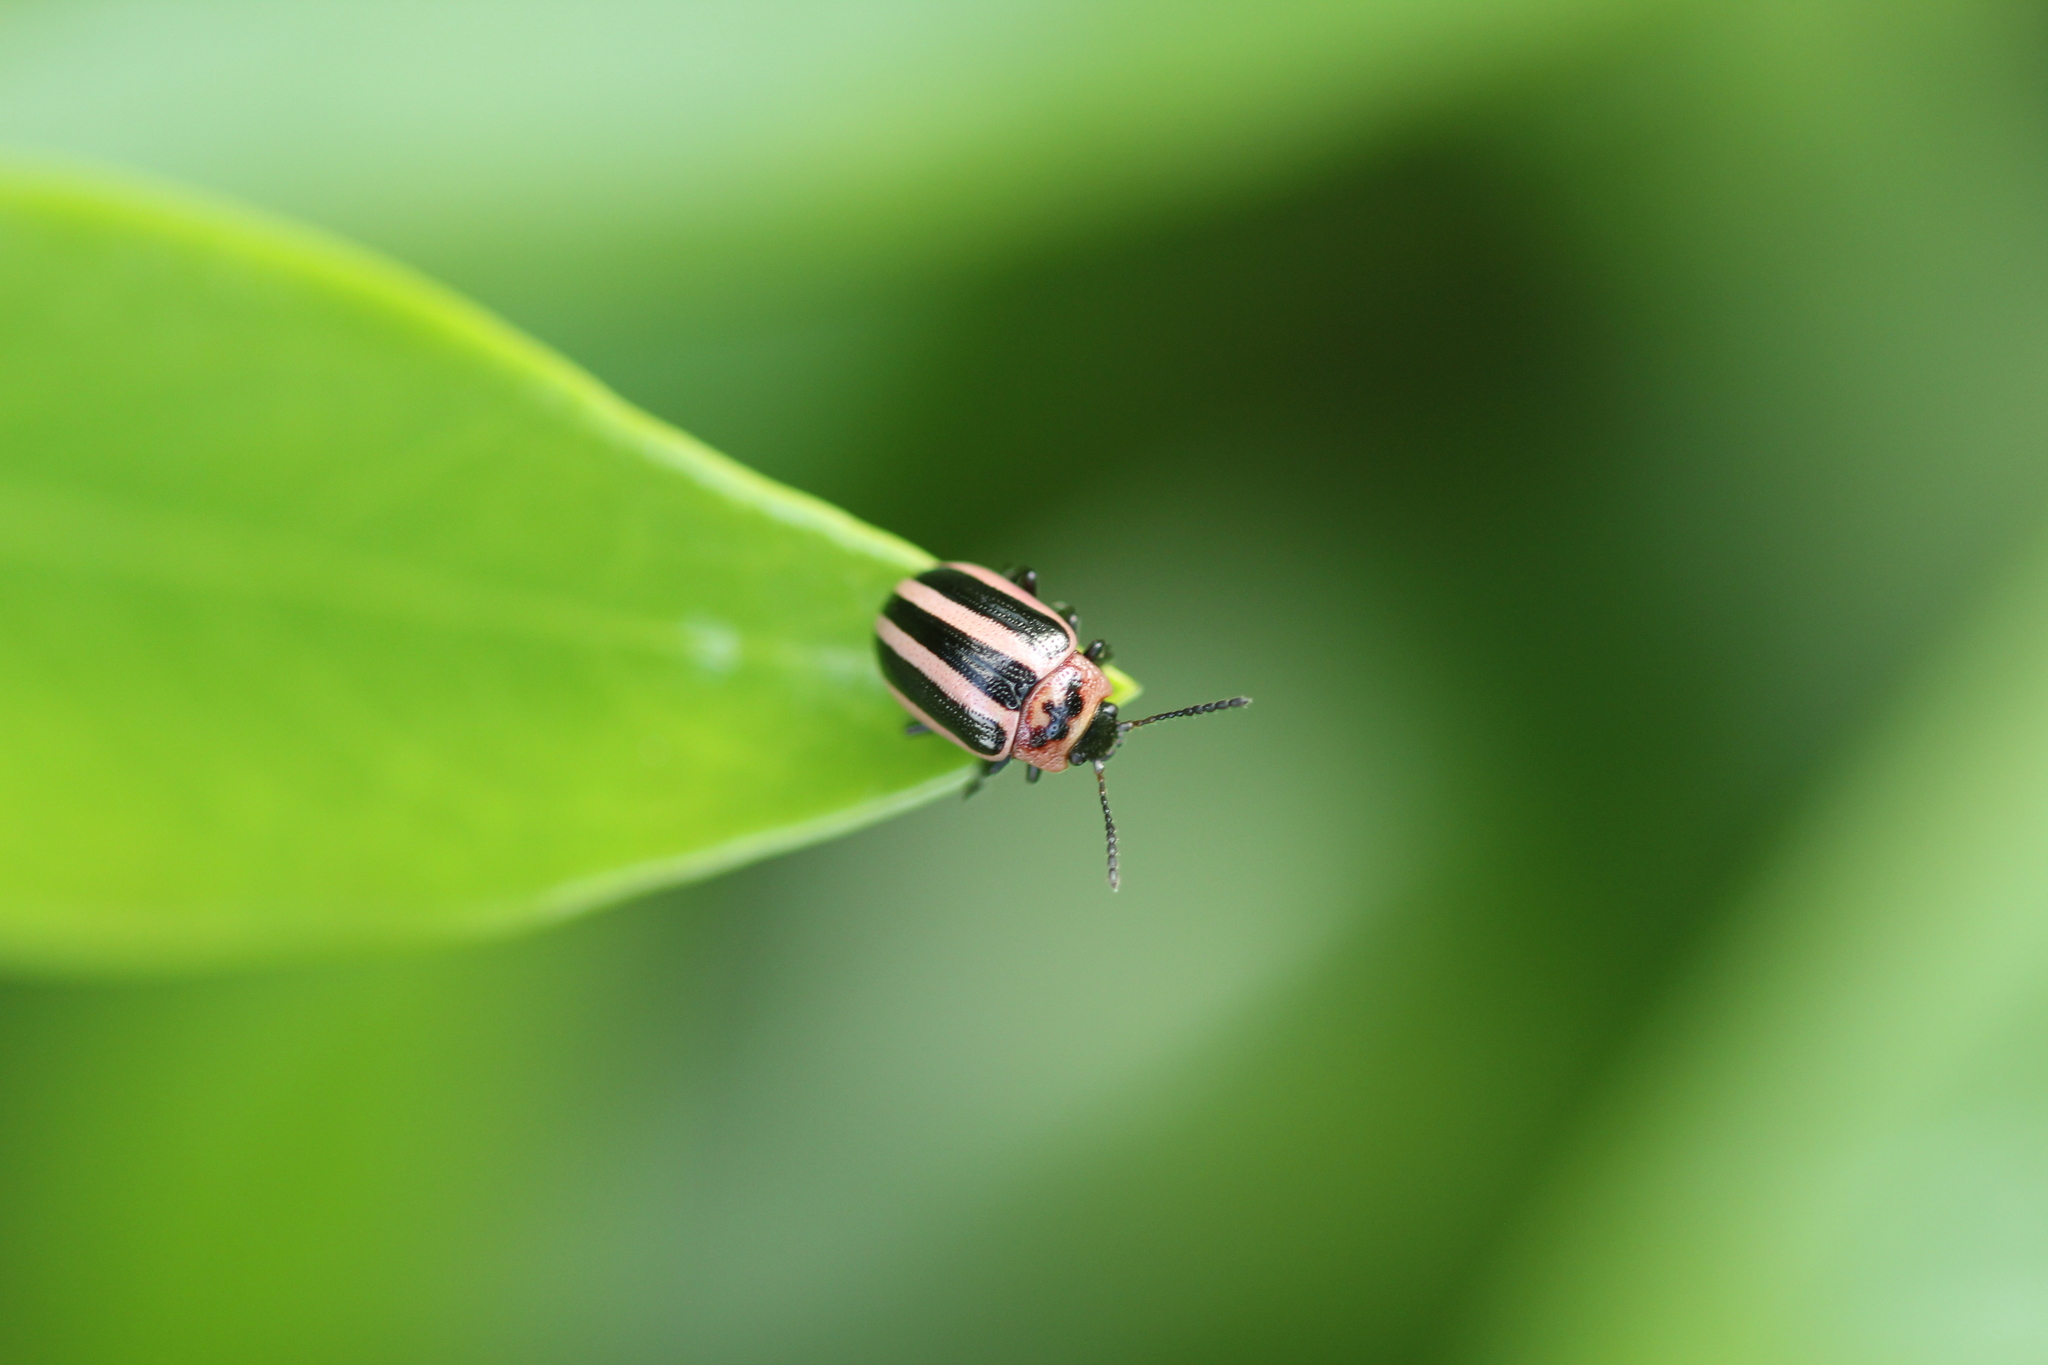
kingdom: Animalia
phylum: Arthropoda
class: Insecta
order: Coleoptera
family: Chrysomelidae
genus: Calligrapha
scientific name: Calligrapha californica
